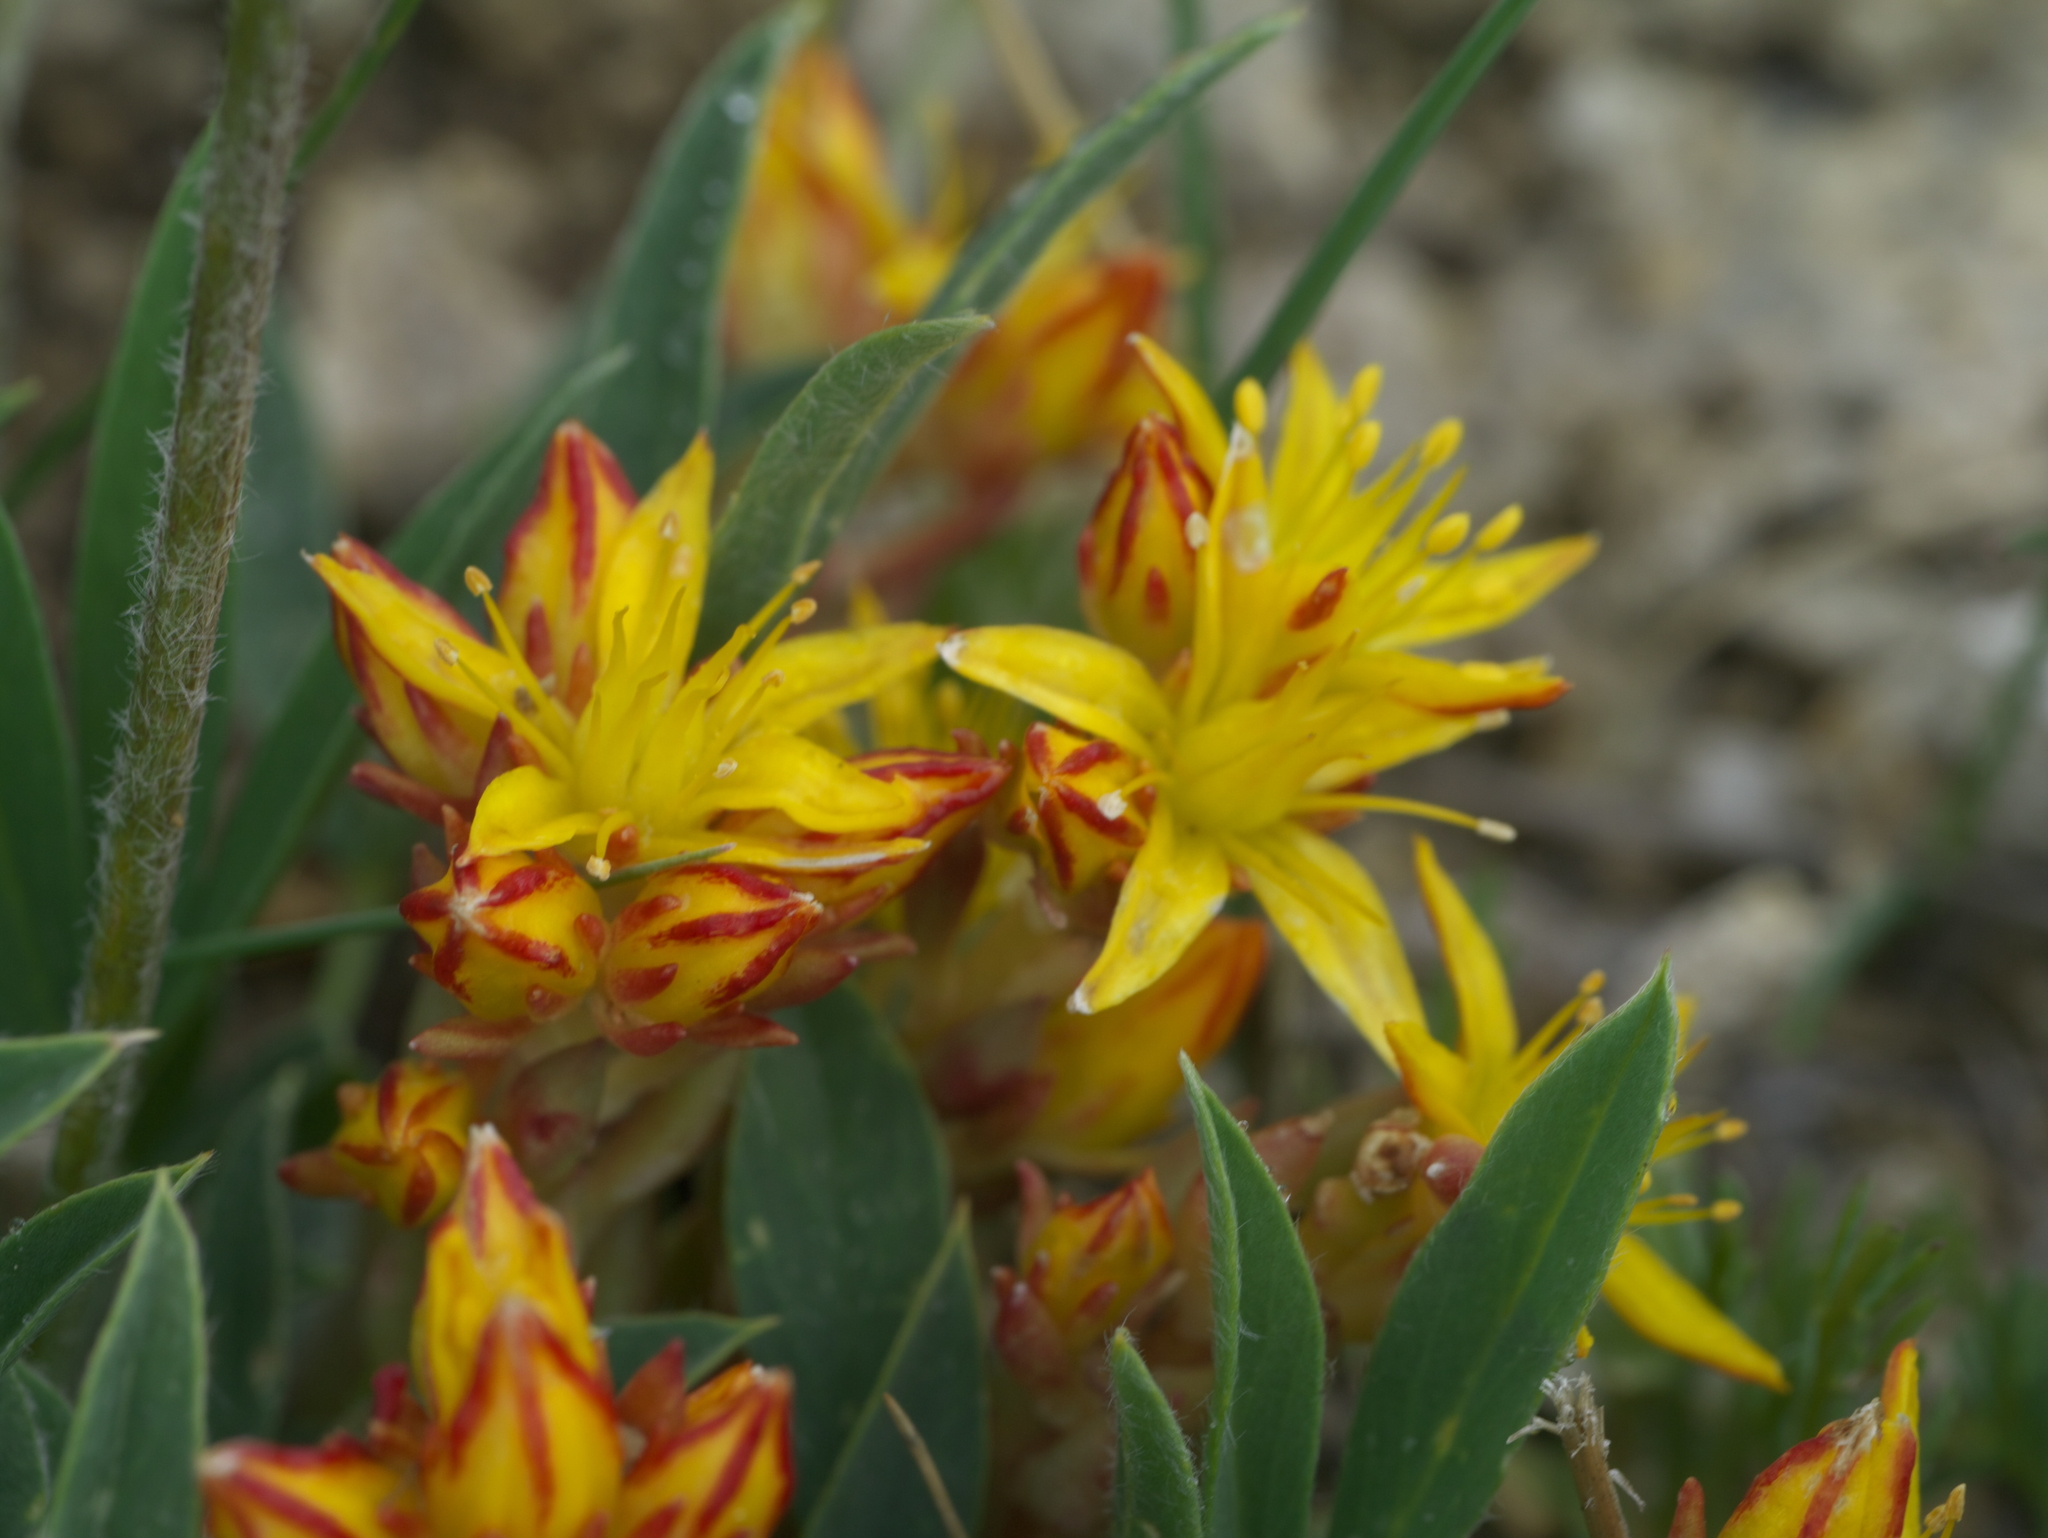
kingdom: Plantae
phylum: Tracheophyta
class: Magnoliopsida
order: Saxifragales
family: Crassulaceae
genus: Sedum
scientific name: Sedum lanceolatum
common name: Common stonecrop
